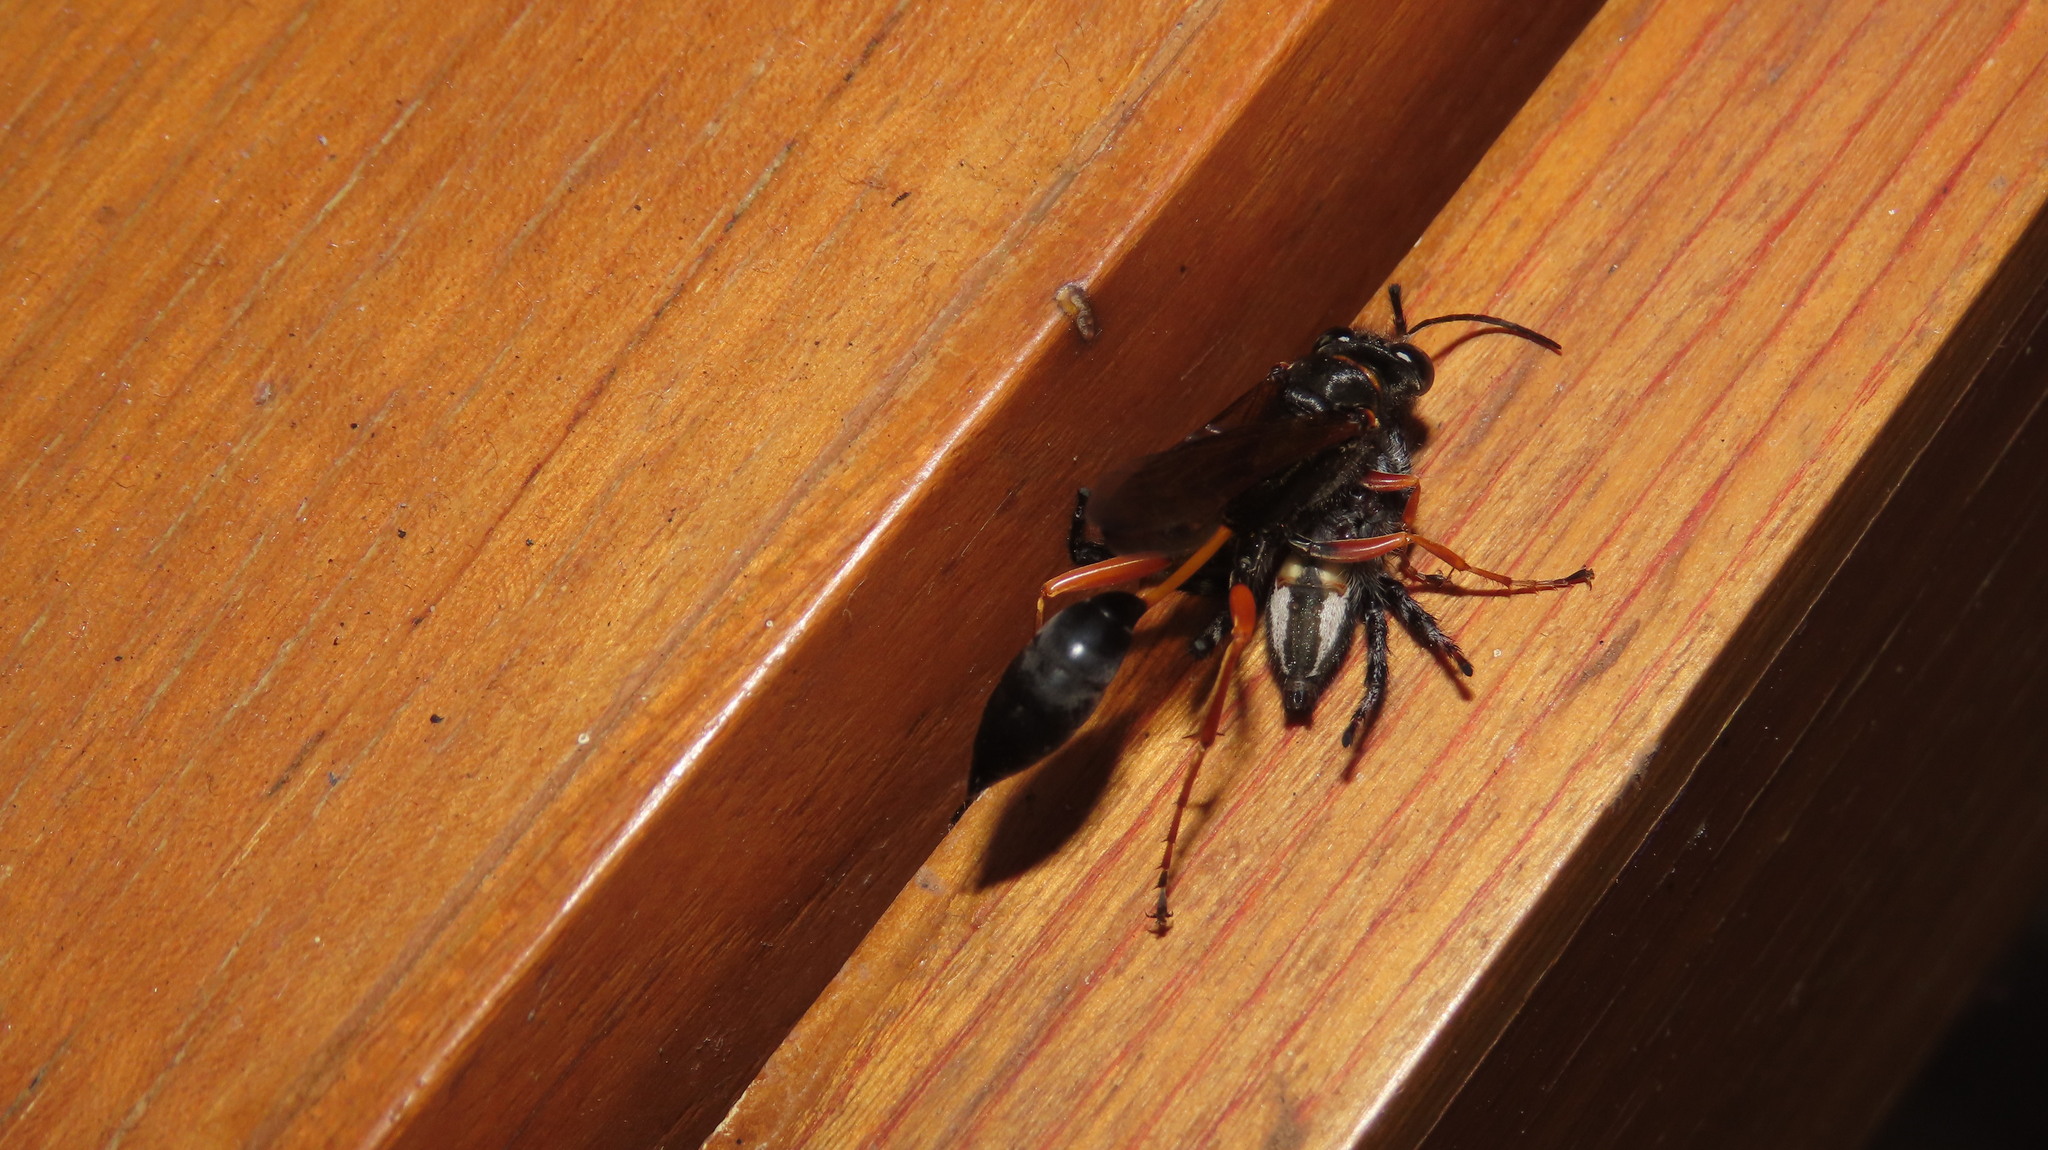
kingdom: Animalia
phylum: Arthropoda
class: Arachnida
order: Araneae
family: Salticidae
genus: Carrhotus
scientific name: Carrhotus viduus
